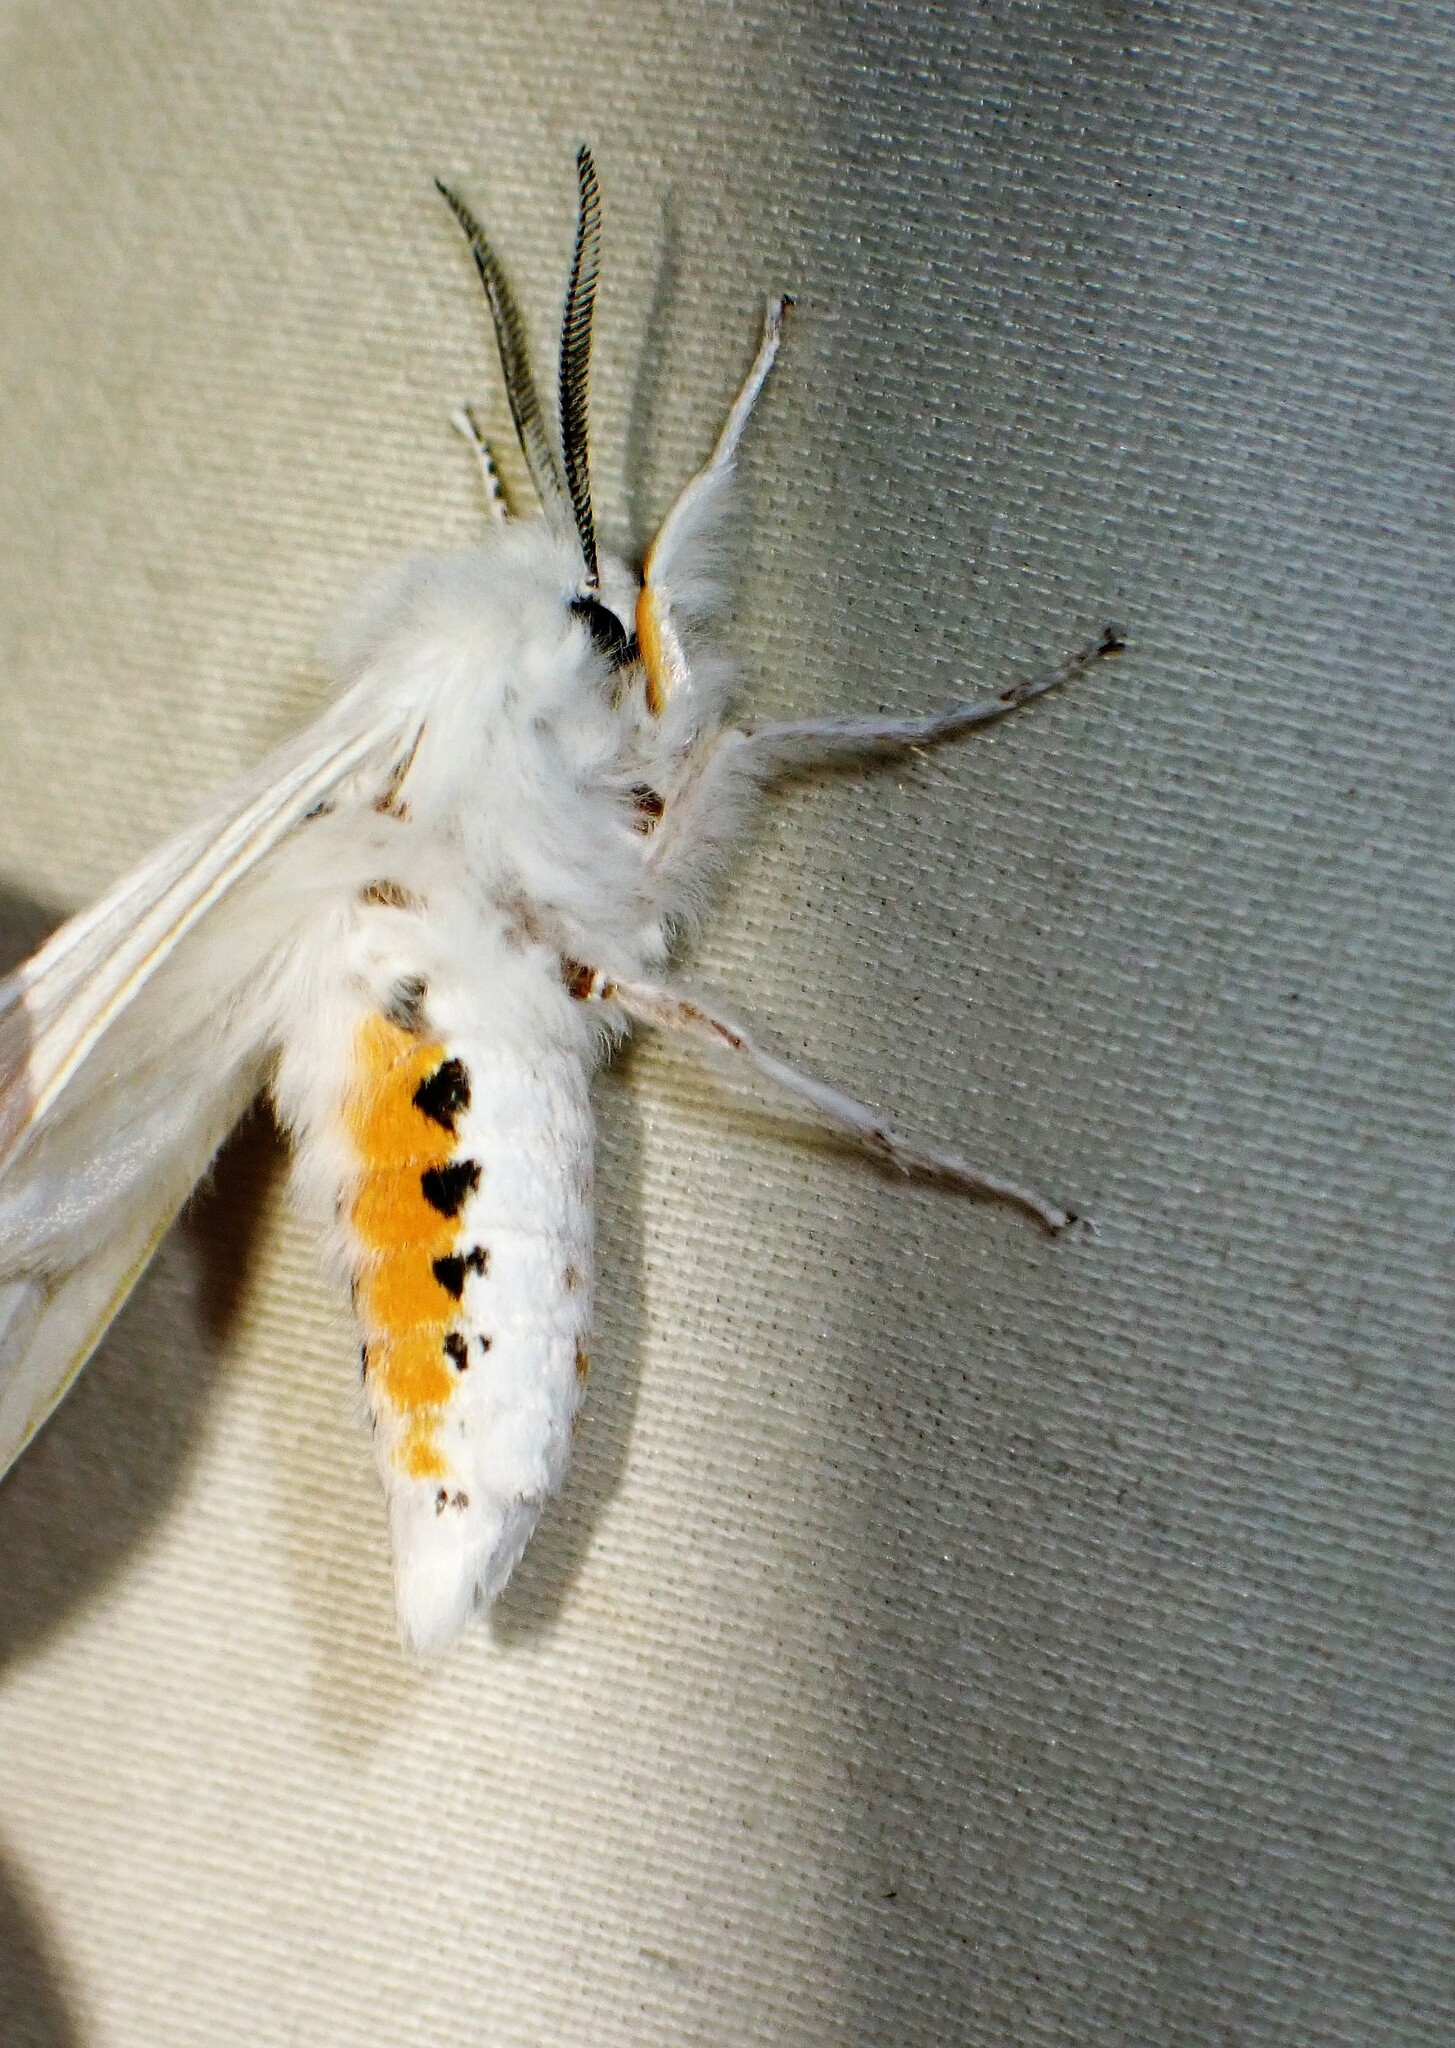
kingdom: Animalia
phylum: Arthropoda
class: Insecta
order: Lepidoptera
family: Erebidae
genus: Spilosoma
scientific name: Spilosoma virginica
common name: Virginia tiger moth
